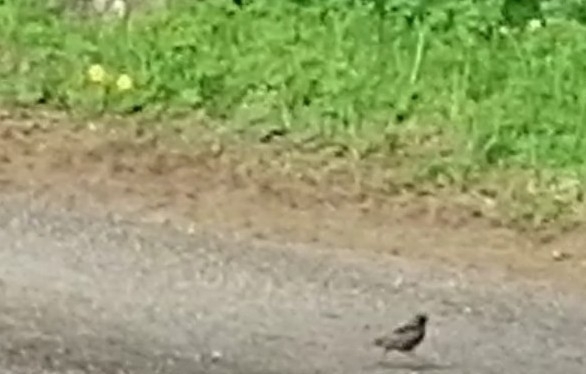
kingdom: Animalia
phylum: Chordata
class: Aves
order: Passeriformes
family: Sturnidae
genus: Sturnus
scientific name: Sturnus vulgaris
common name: Common starling
